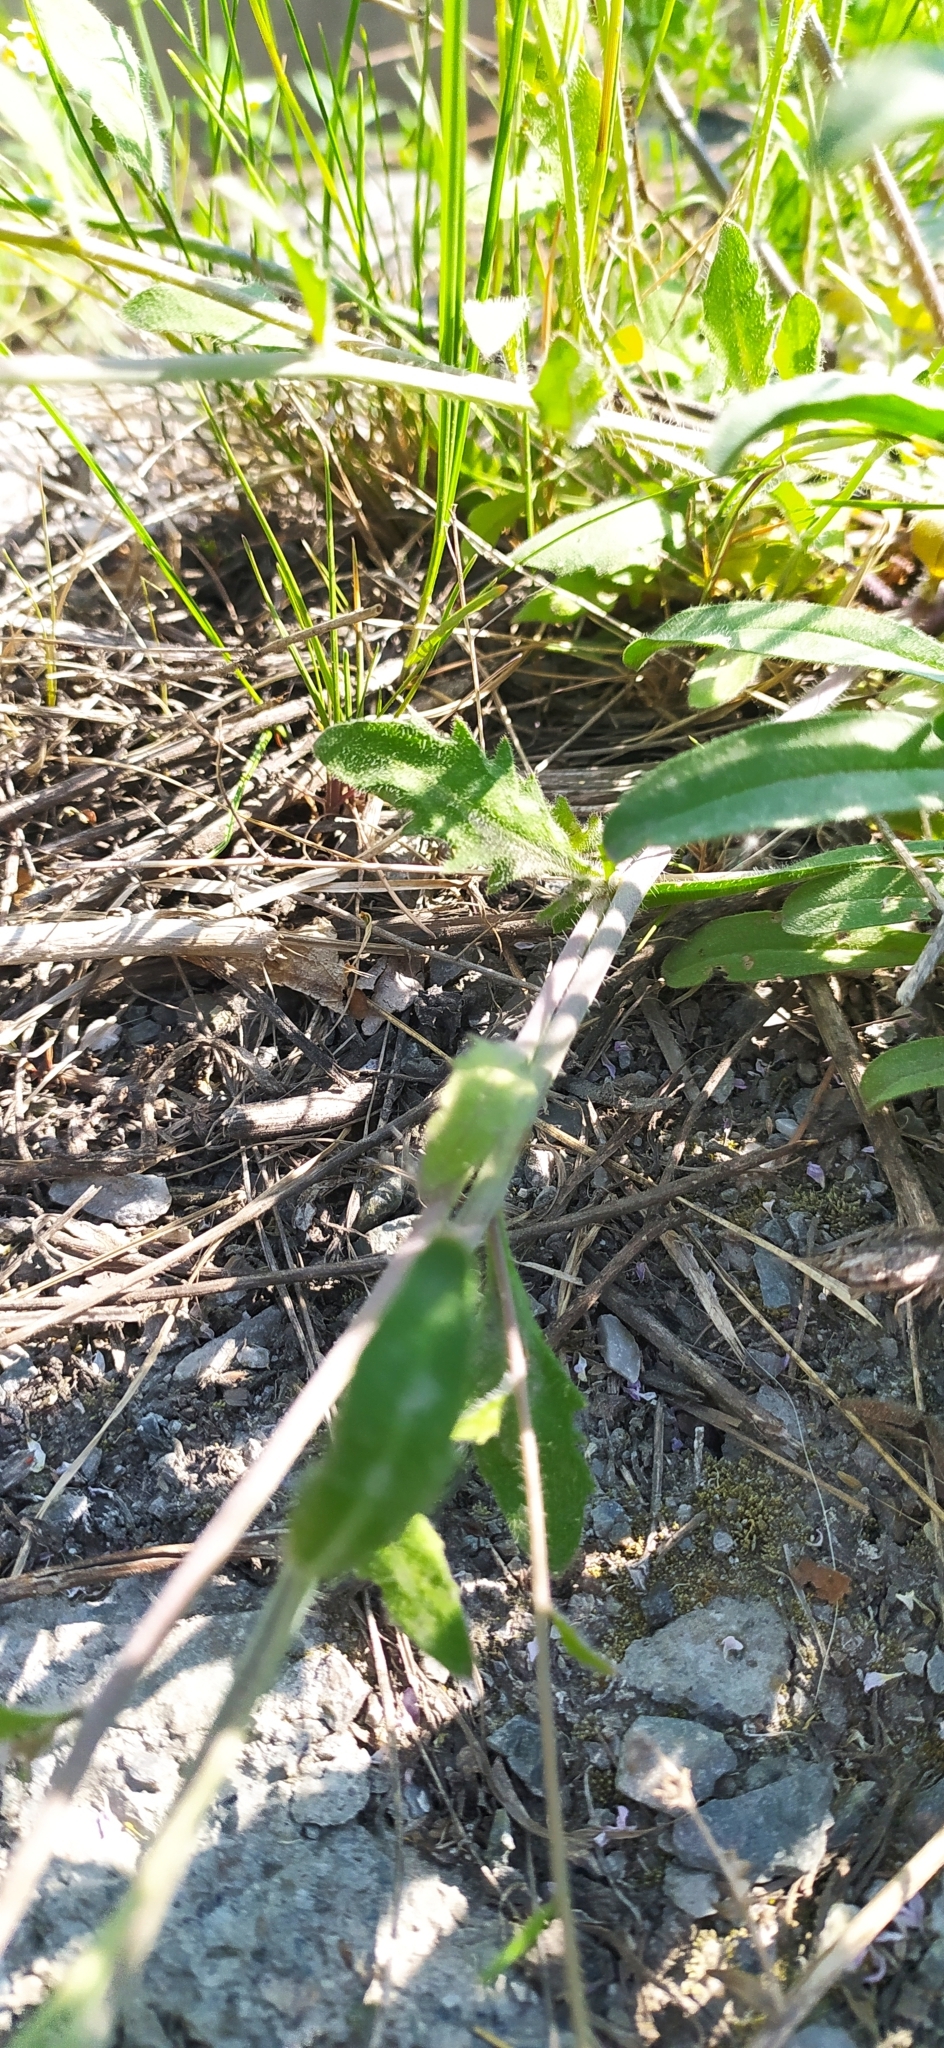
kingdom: Plantae
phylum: Tracheophyta
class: Magnoliopsida
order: Brassicales
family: Brassicaceae
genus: Arabidopsis
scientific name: Arabidopsis arenosa
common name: Sand rock-cress
